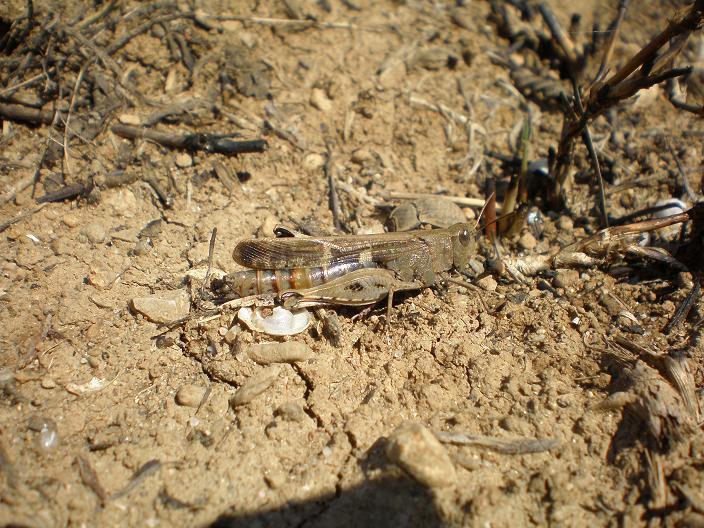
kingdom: Animalia
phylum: Arthropoda
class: Insecta
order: Orthoptera
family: Acrididae
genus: Aiolopus
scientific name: Aiolopus strepens
